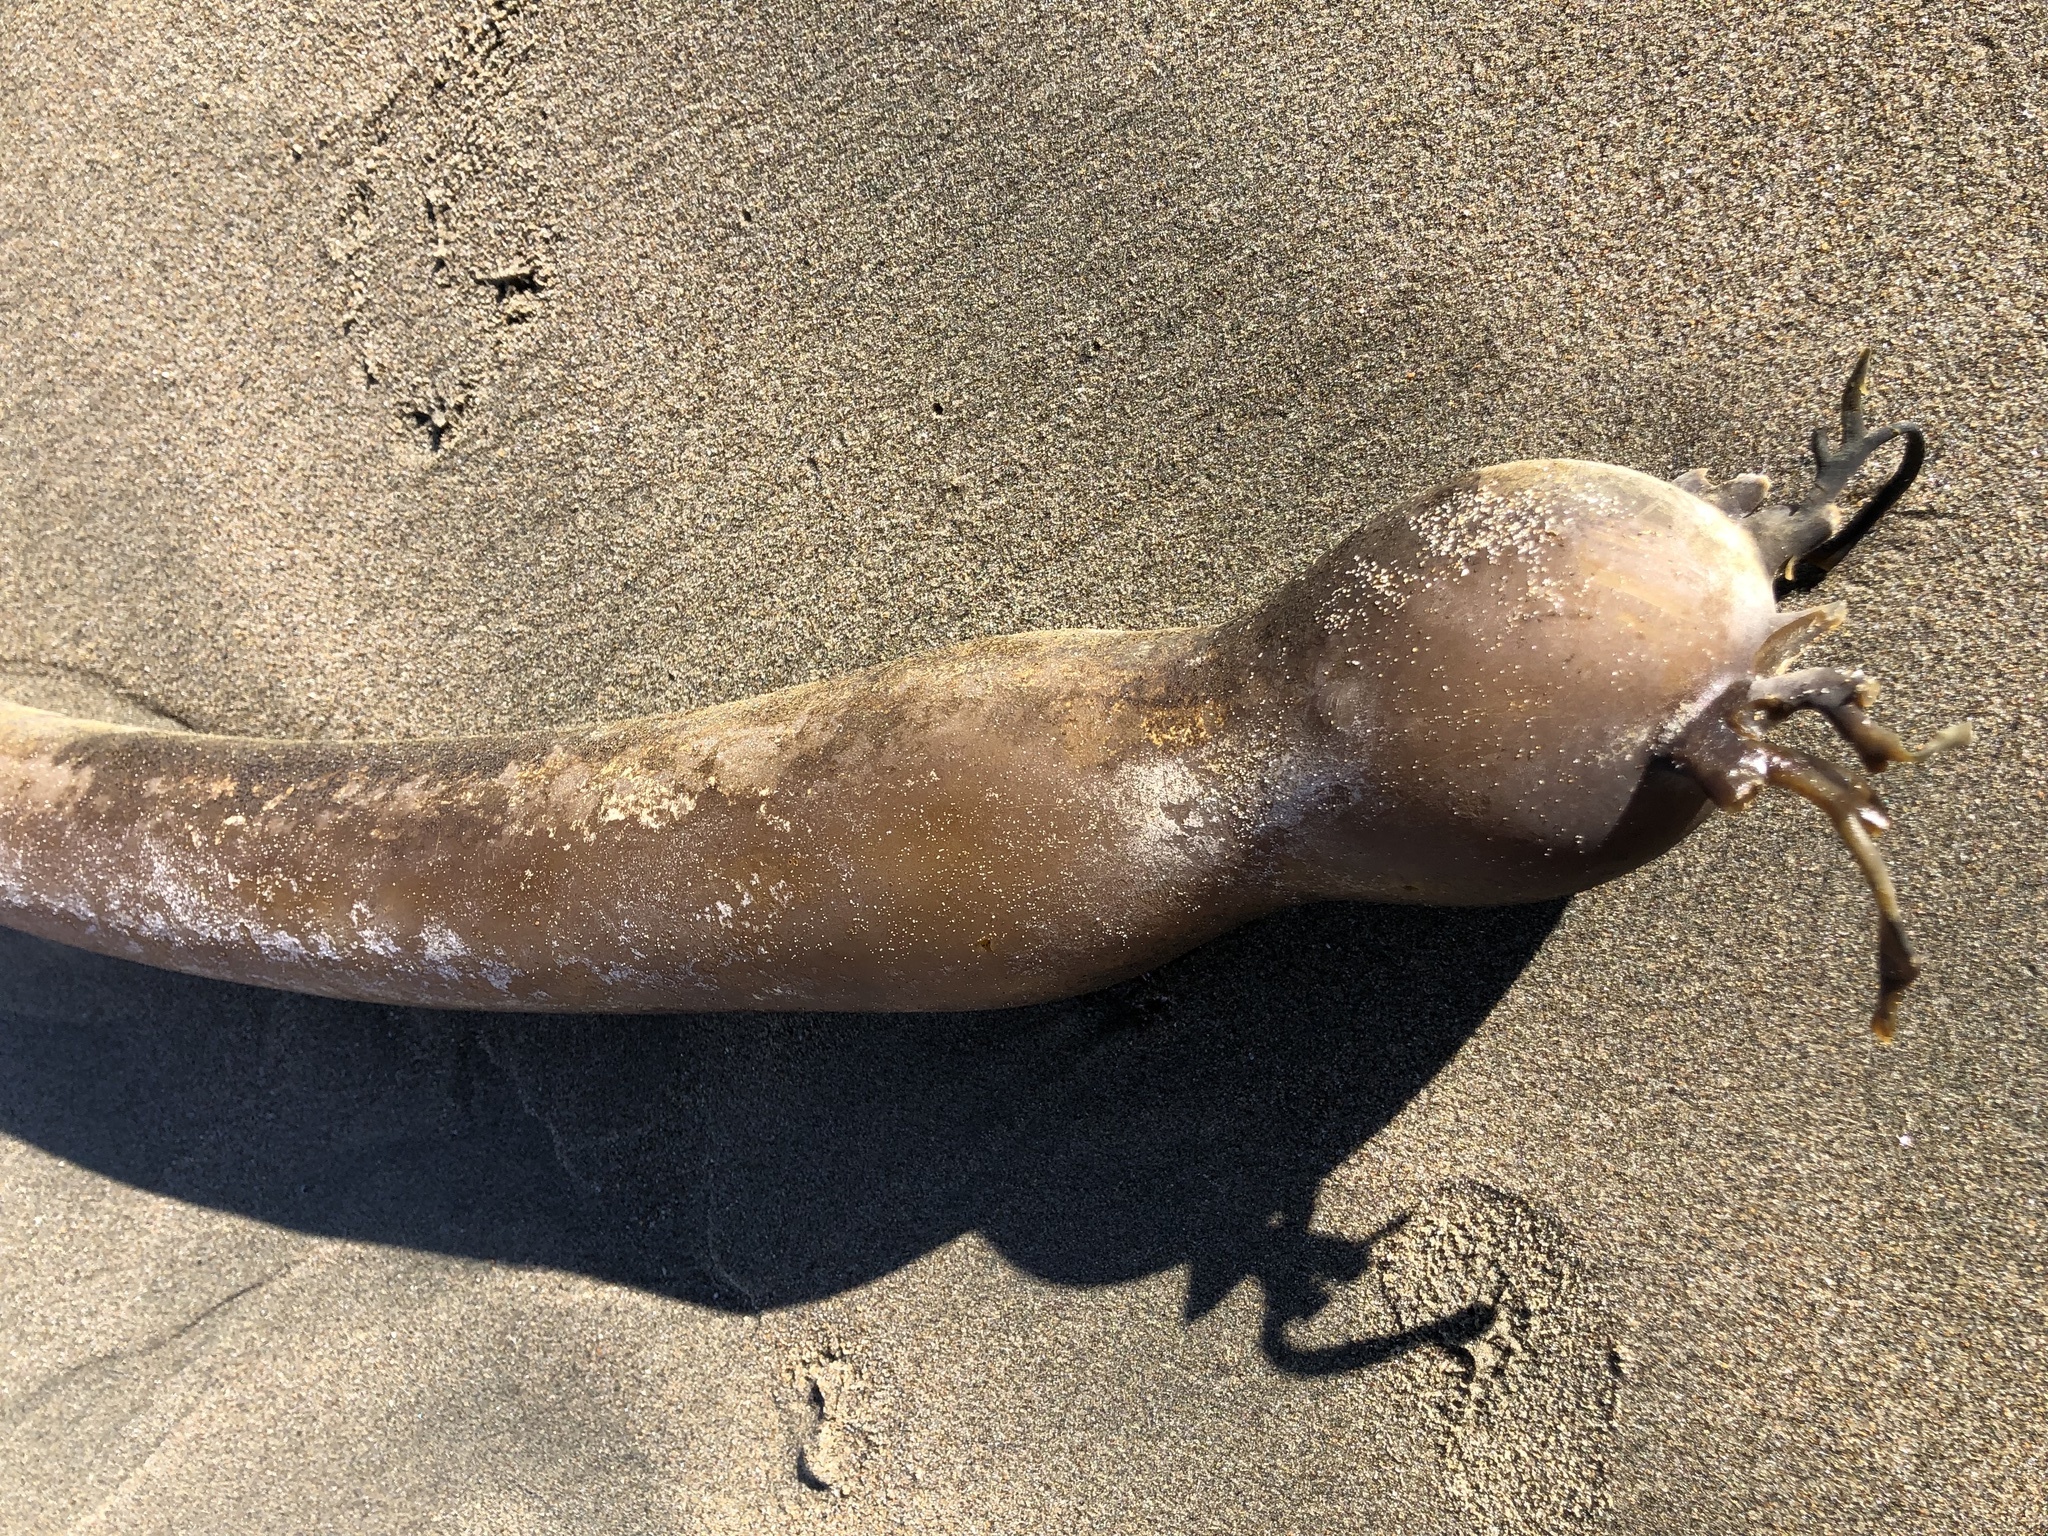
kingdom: Chromista
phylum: Ochrophyta
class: Phaeophyceae
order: Laminariales
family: Laminariaceae
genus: Nereocystis
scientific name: Nereocystis luetkeana
